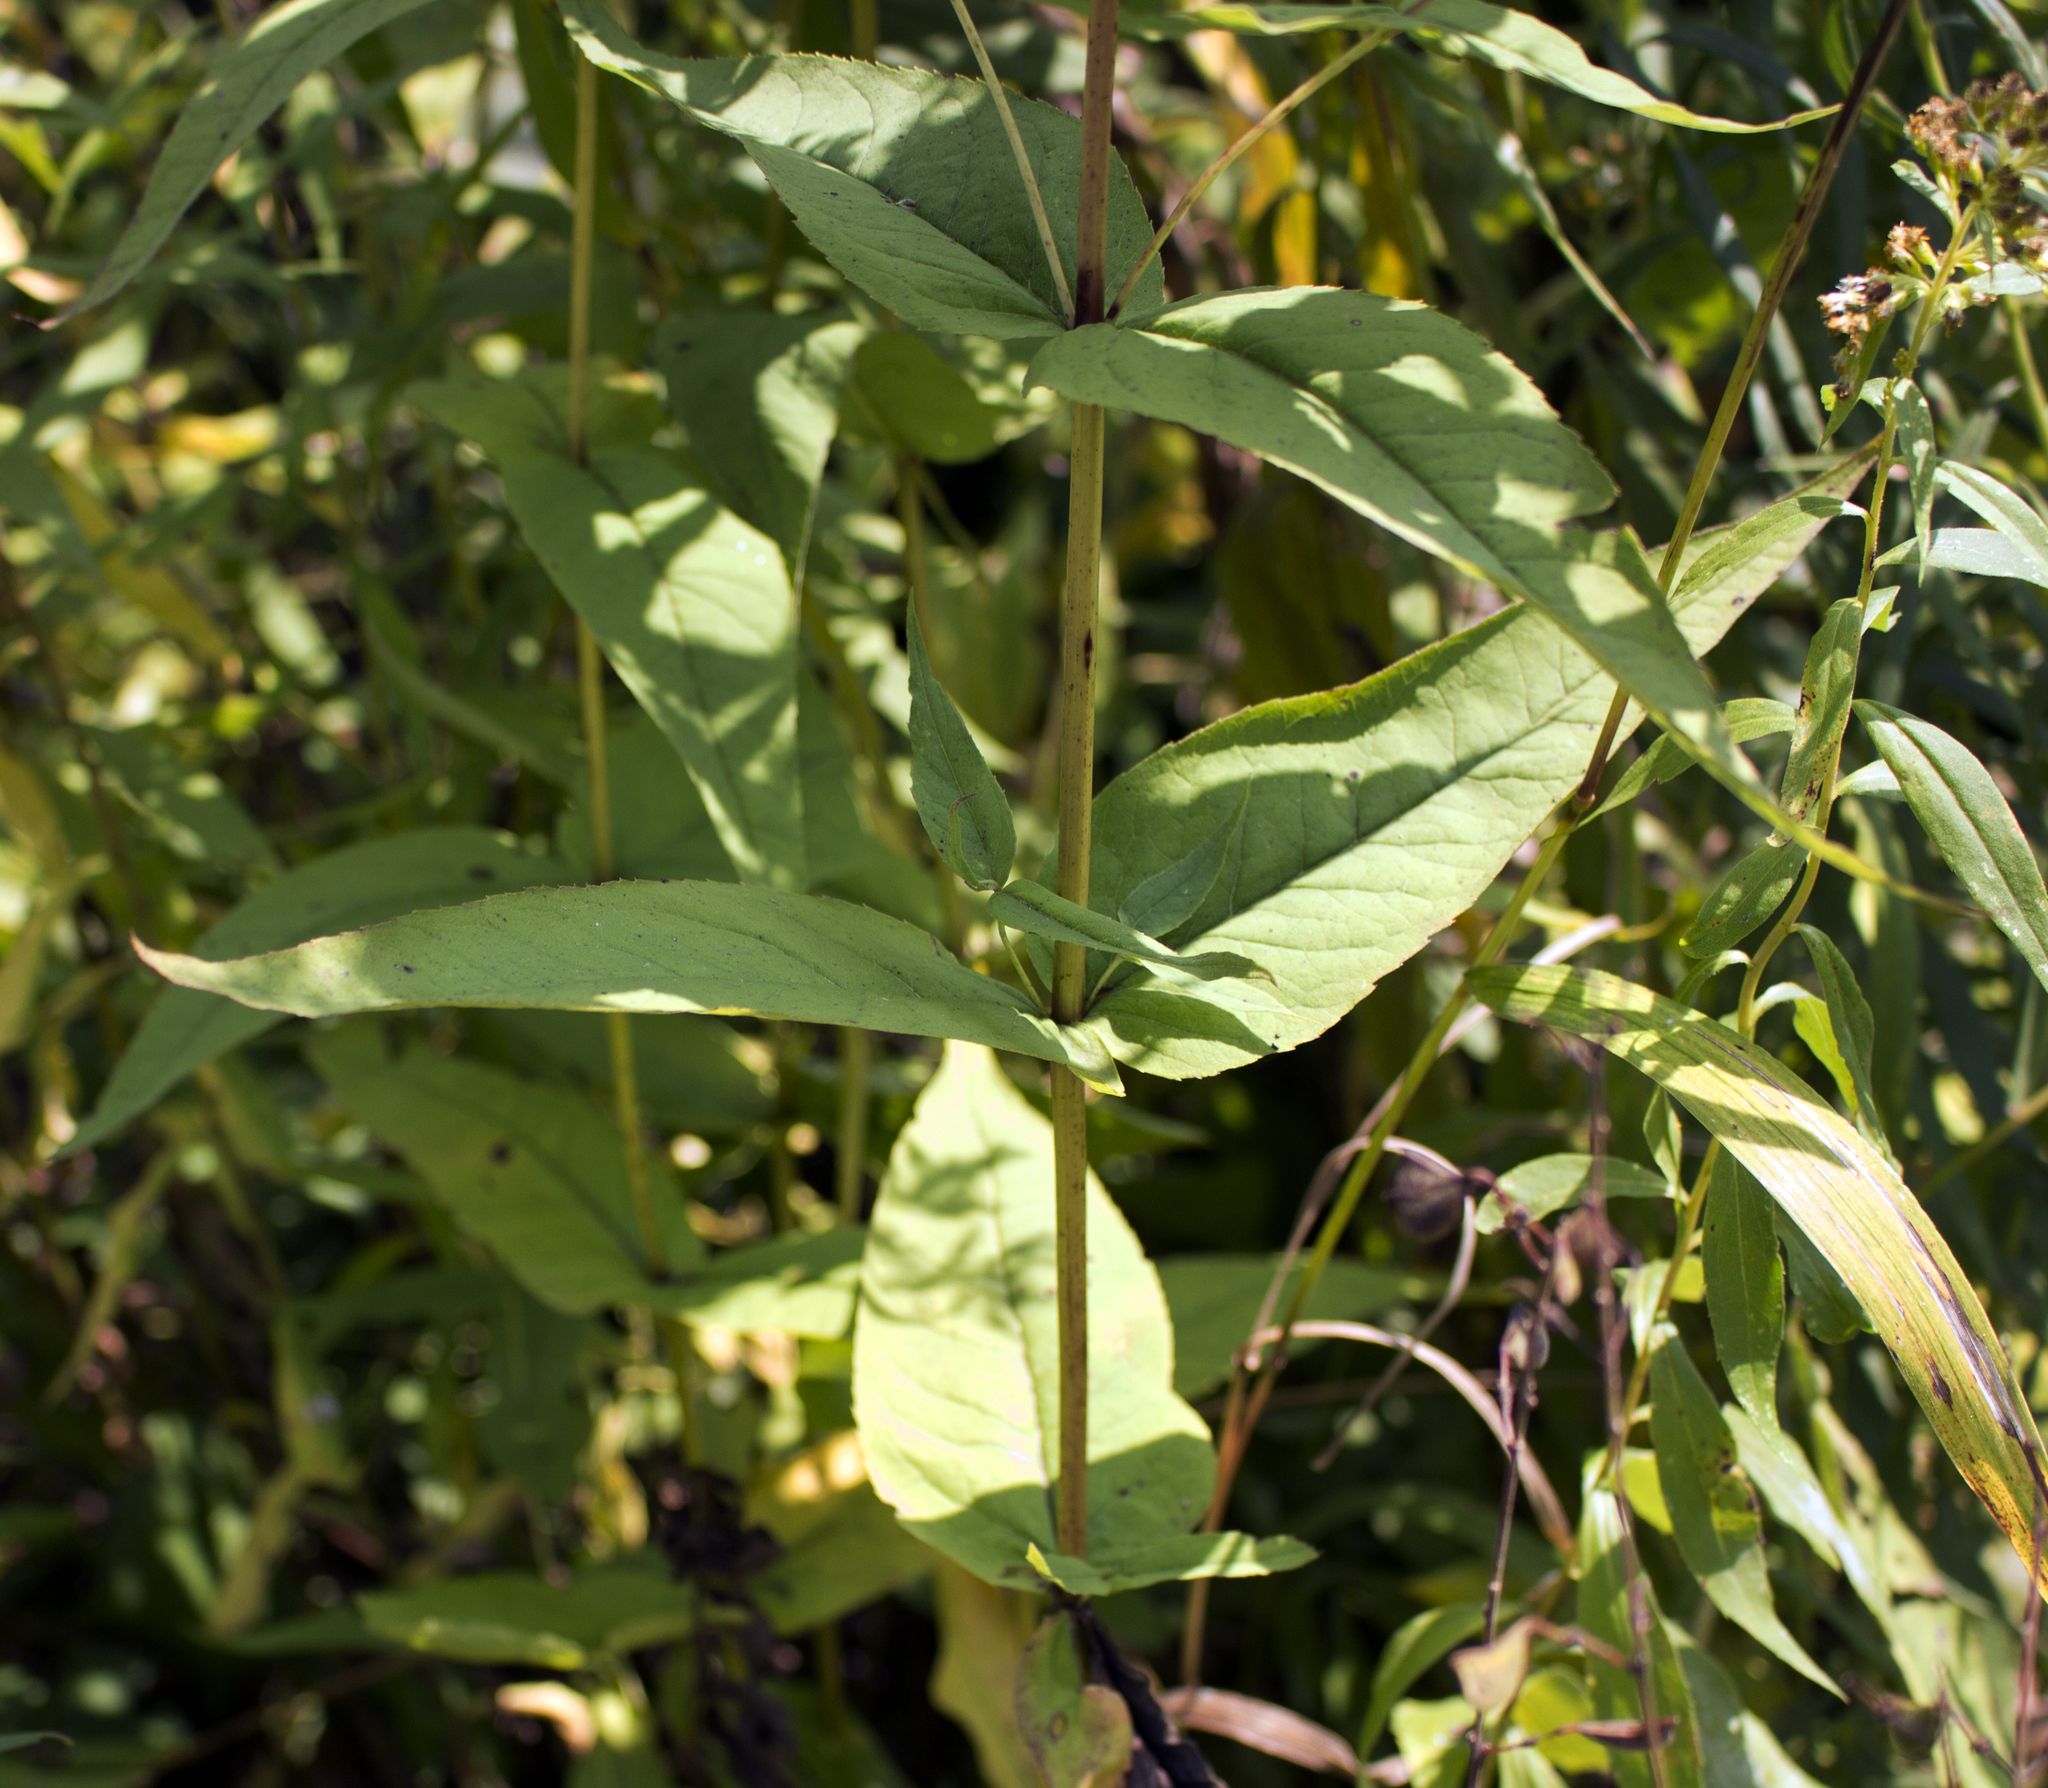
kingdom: Plantae
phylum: Tracheophyta
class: Magnoliopsida
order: Asterales
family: Asteraceae
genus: Eupatorium
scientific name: Eupatorium sessilifolium
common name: Upland boneset
